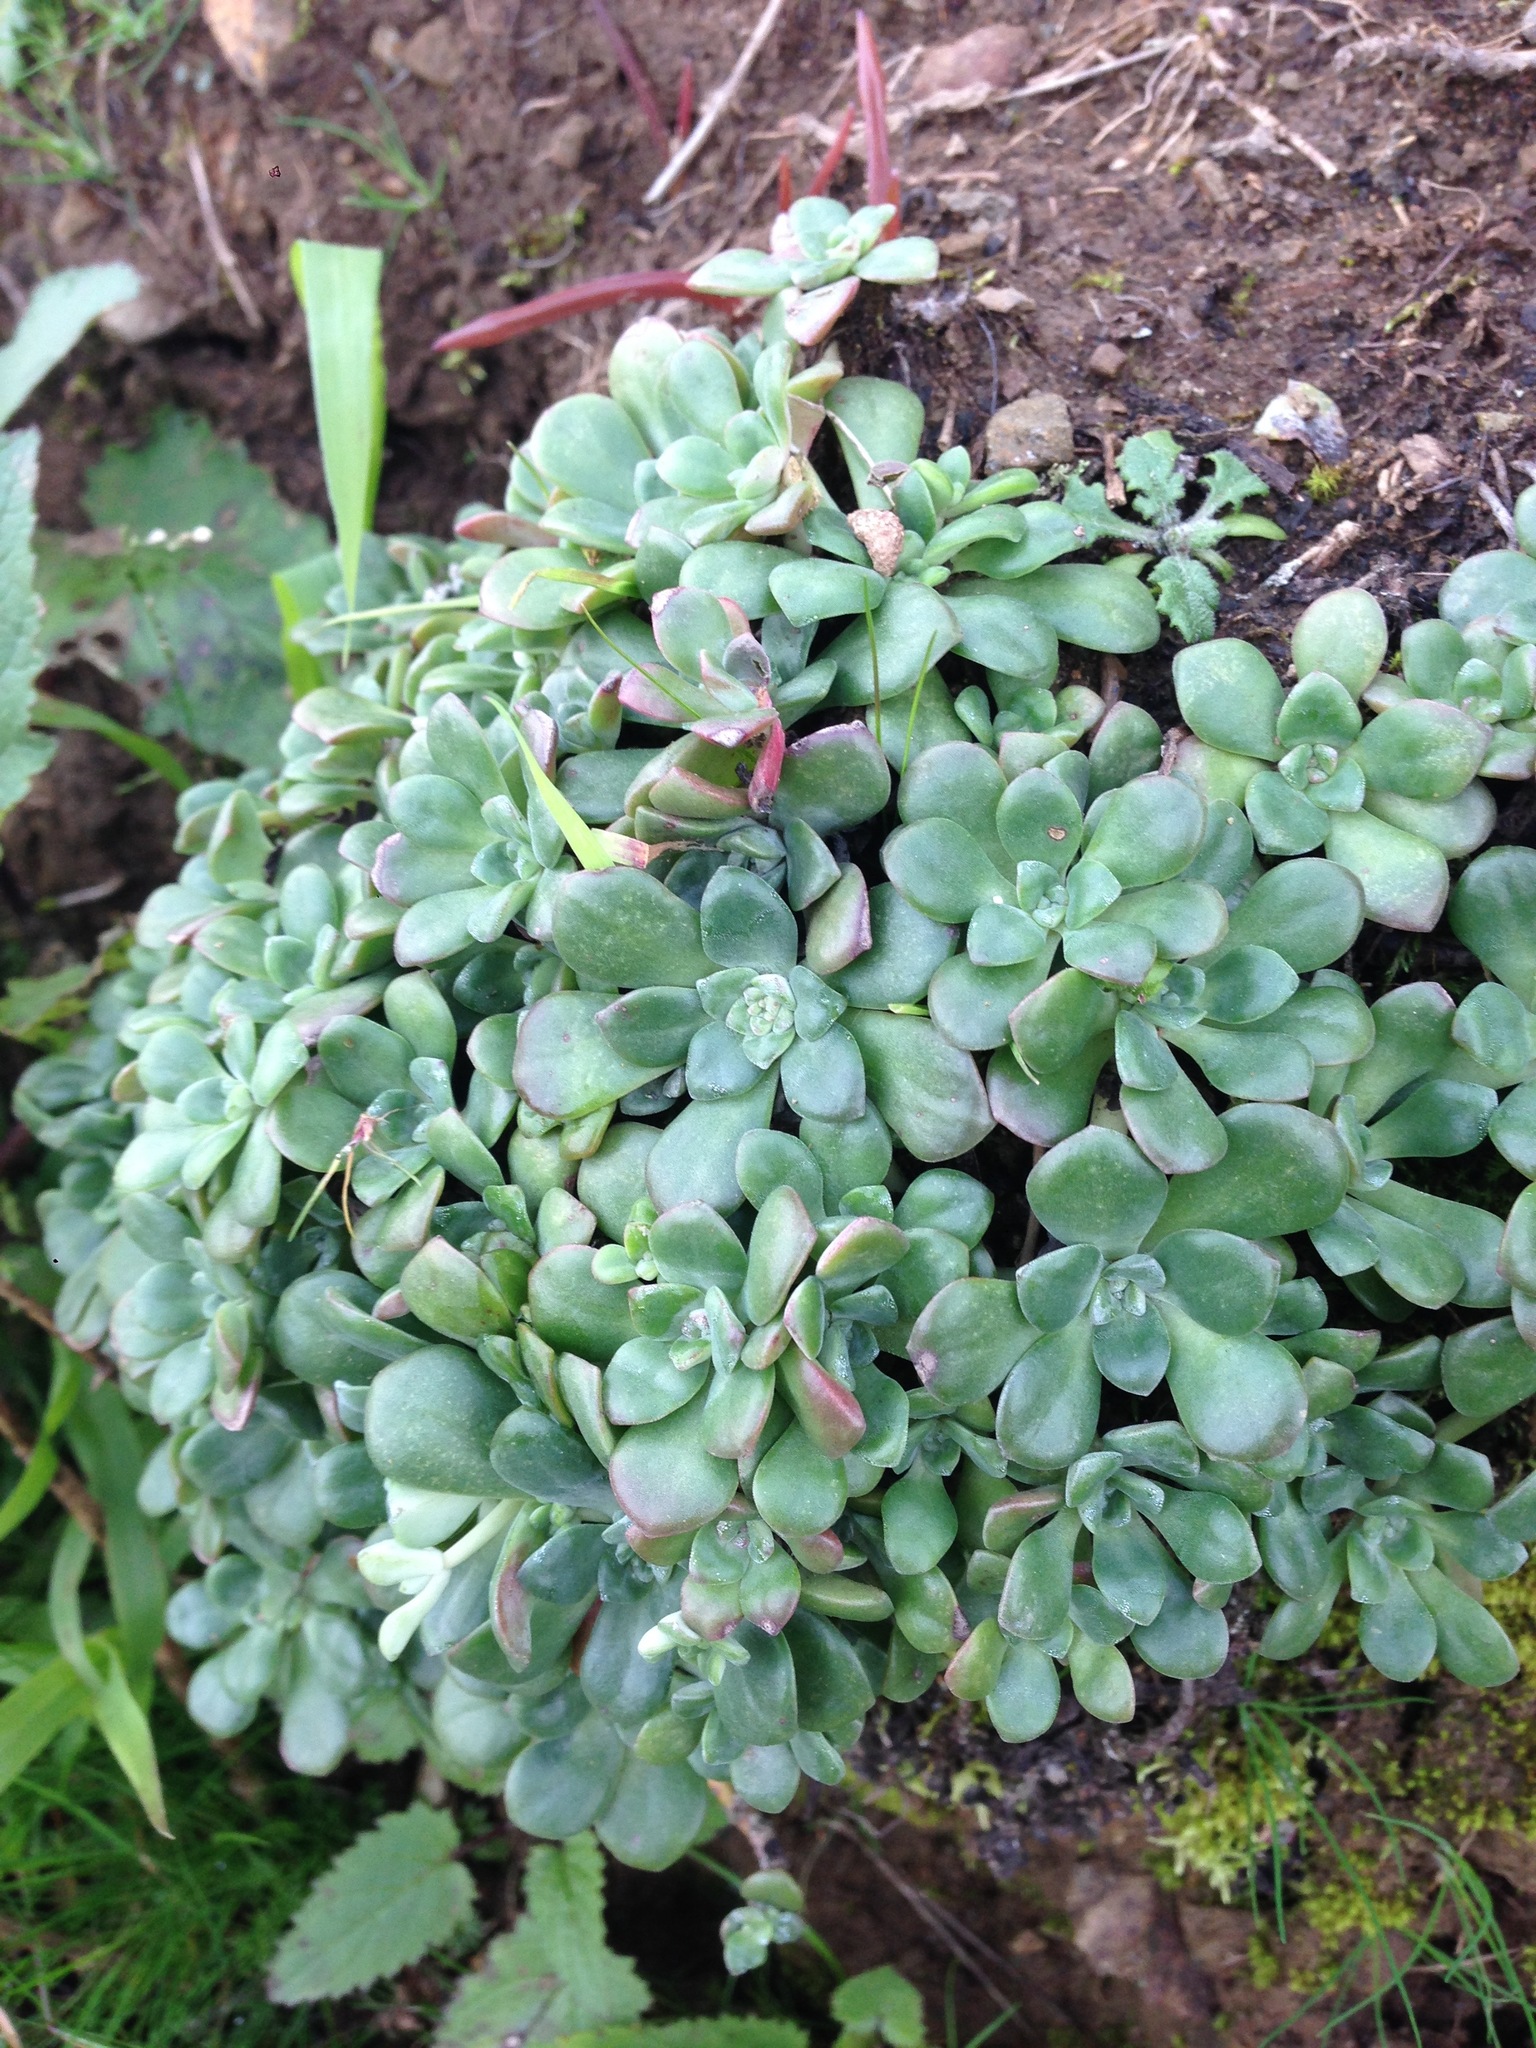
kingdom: Plantae
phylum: Tracheophyta
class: Magnoliopsida
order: Saxifragales
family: Crassulaceae
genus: Sedum
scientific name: Sedum spathulifolium
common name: Colorado stonecrop
